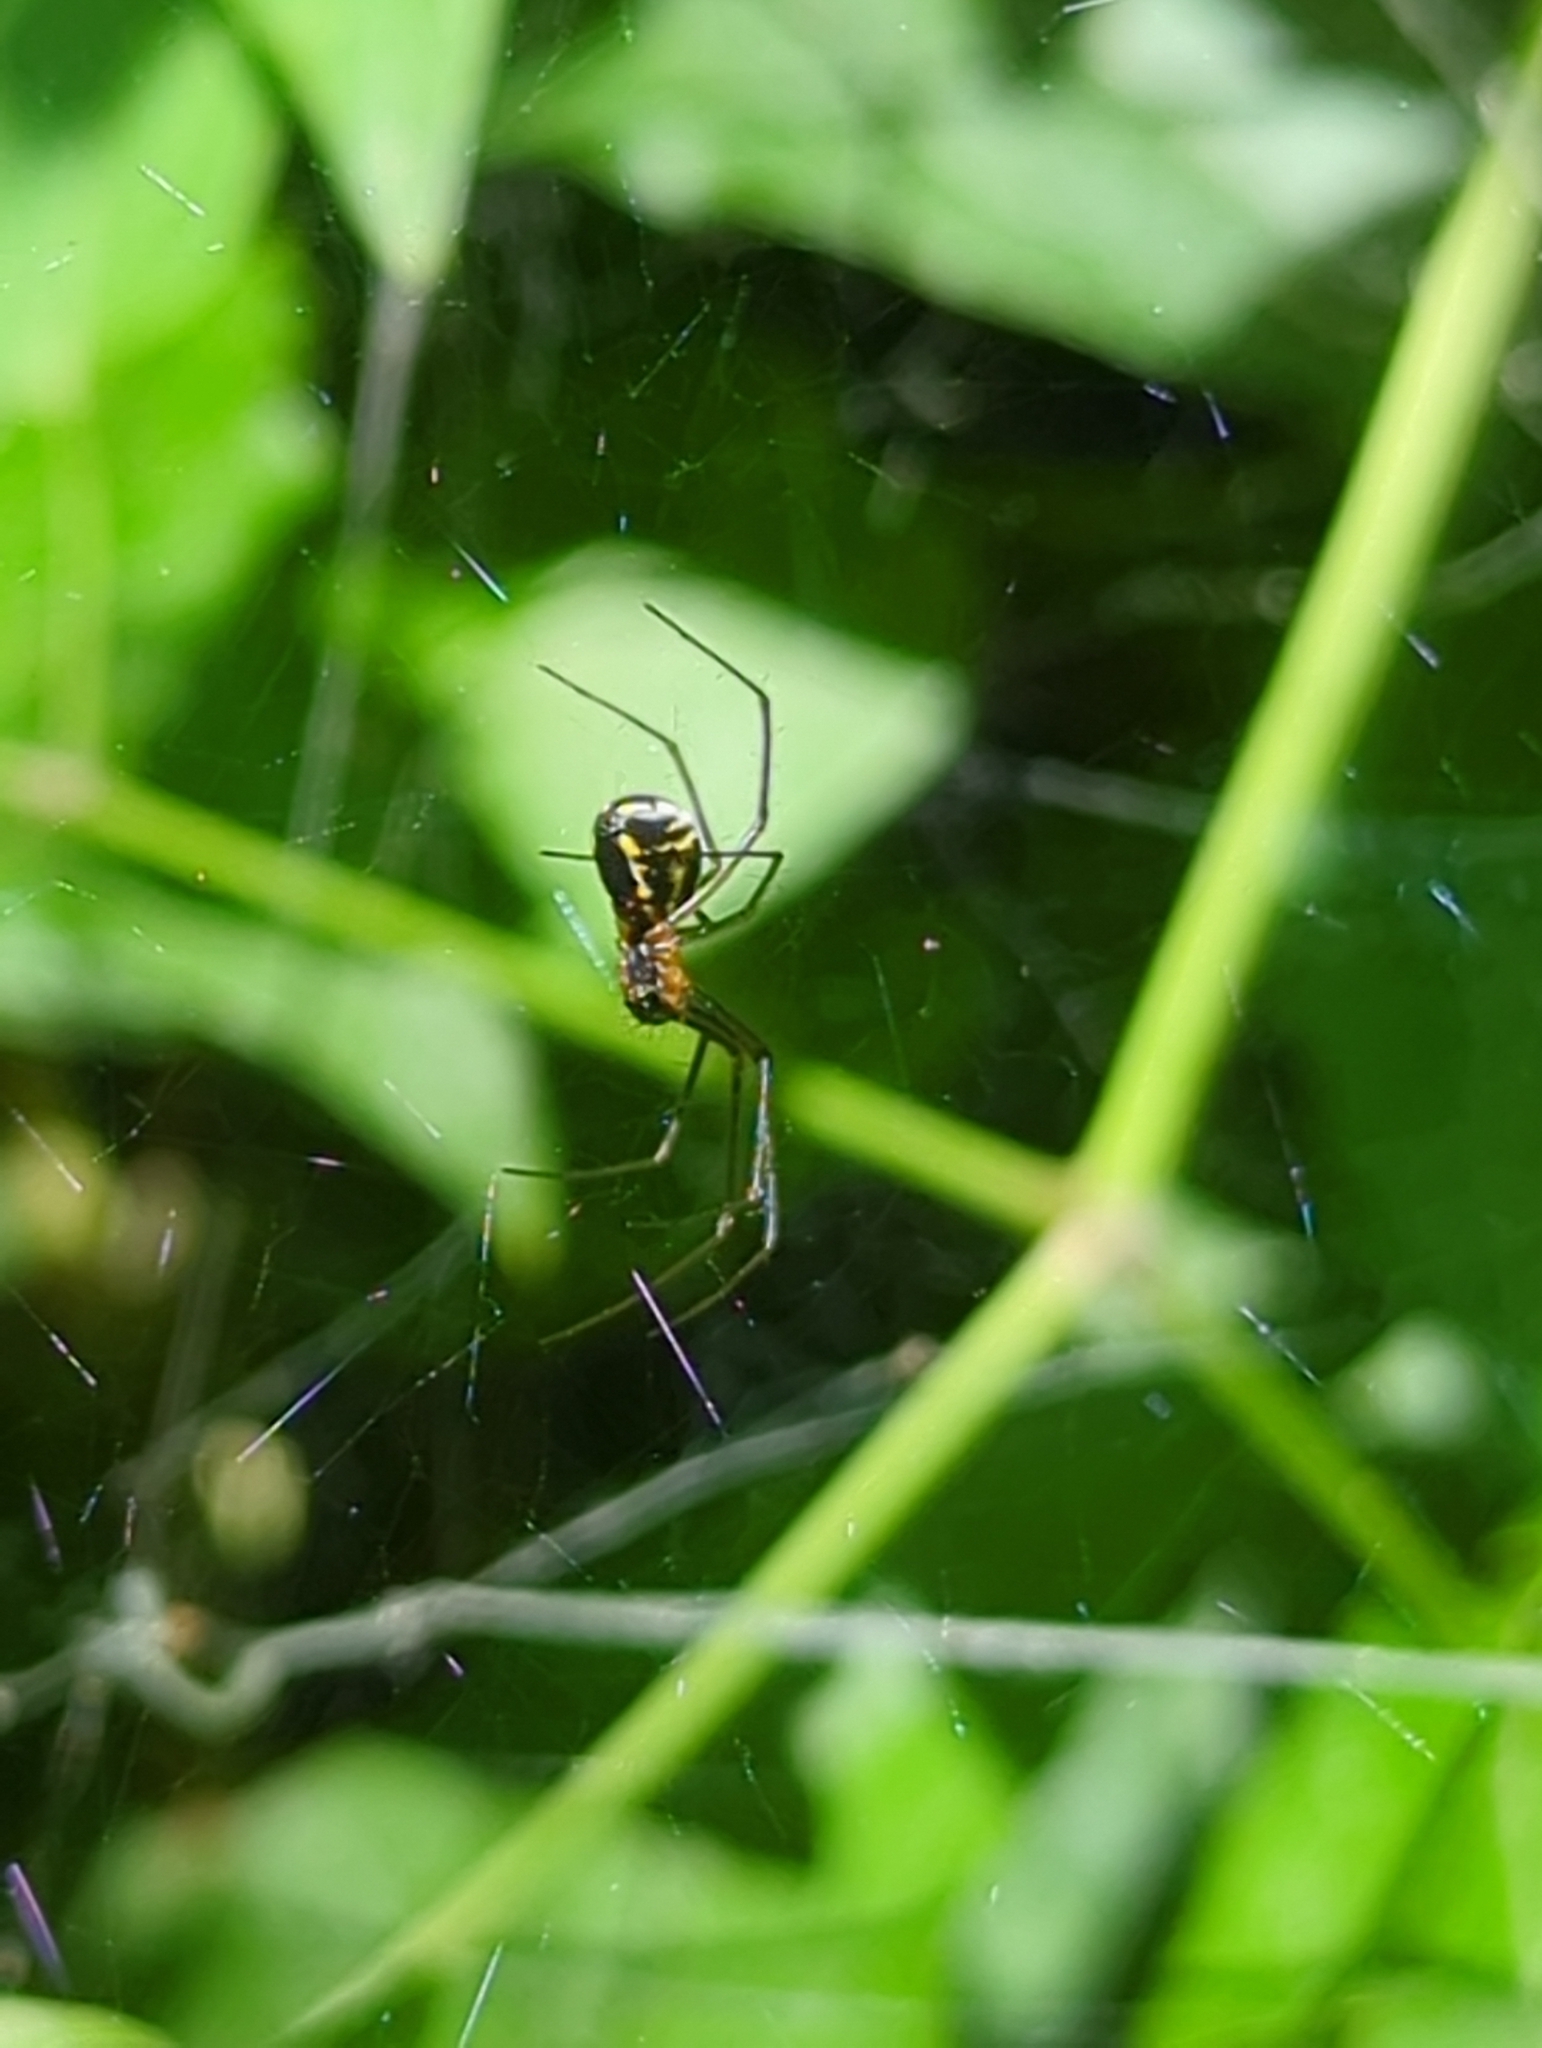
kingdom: Animalia
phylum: Arthropoda
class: Arachnida
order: Araneae
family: Linyphiidae
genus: Neriene
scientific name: Neriene radiata
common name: Filmy dome spider
